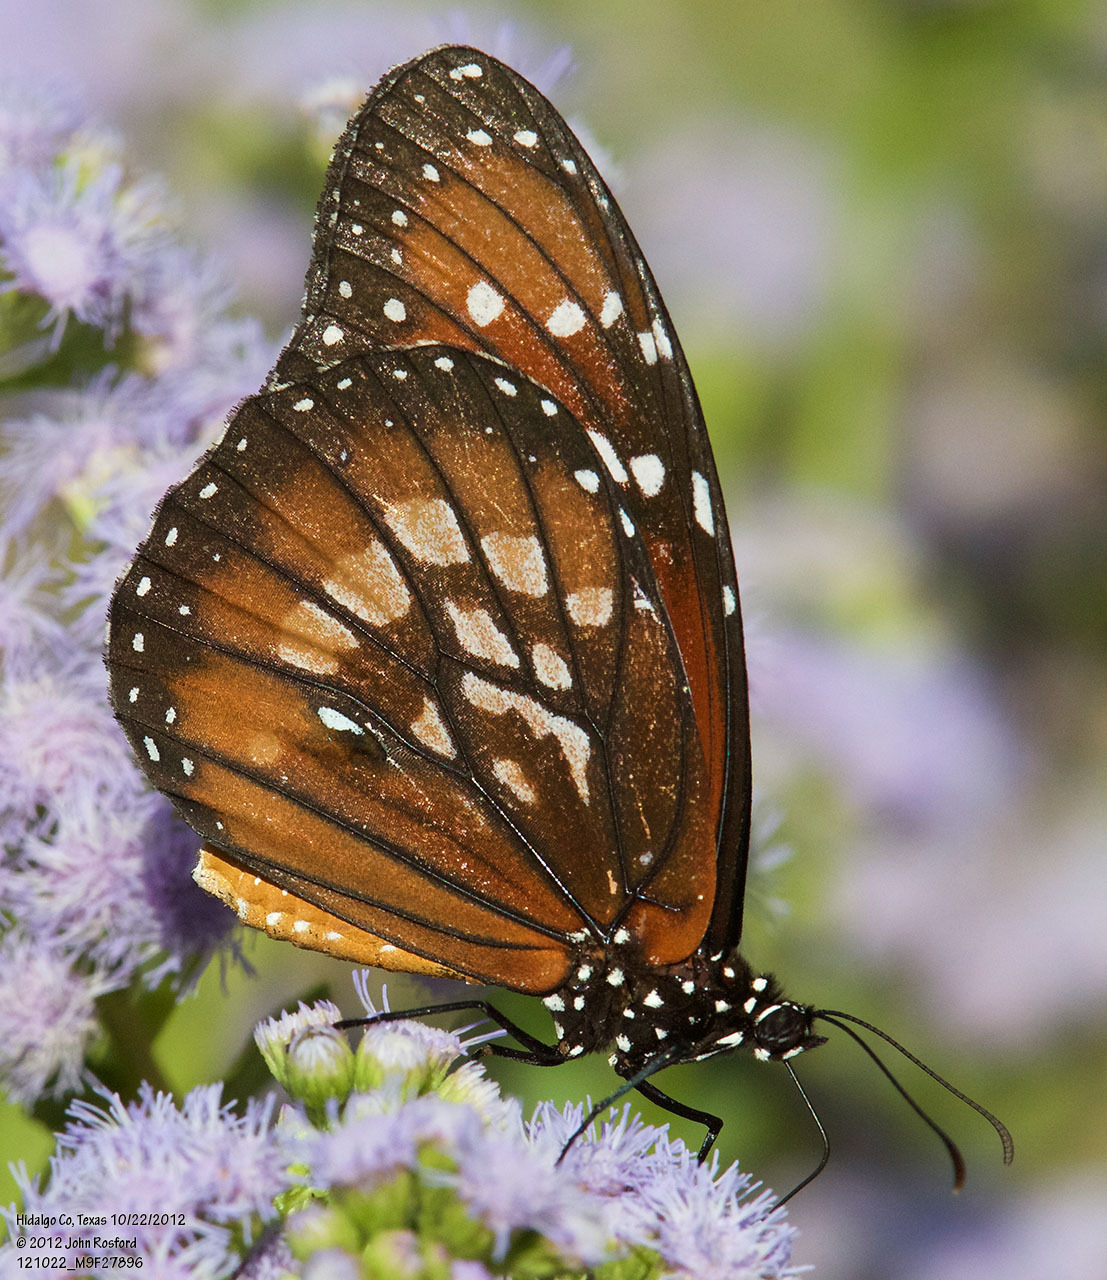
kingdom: Animalia
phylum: Arthropoda
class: Insecta
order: Lepidoptera
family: Nymphalidae
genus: Danaus
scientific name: Danaus eresimus
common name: Soldier
